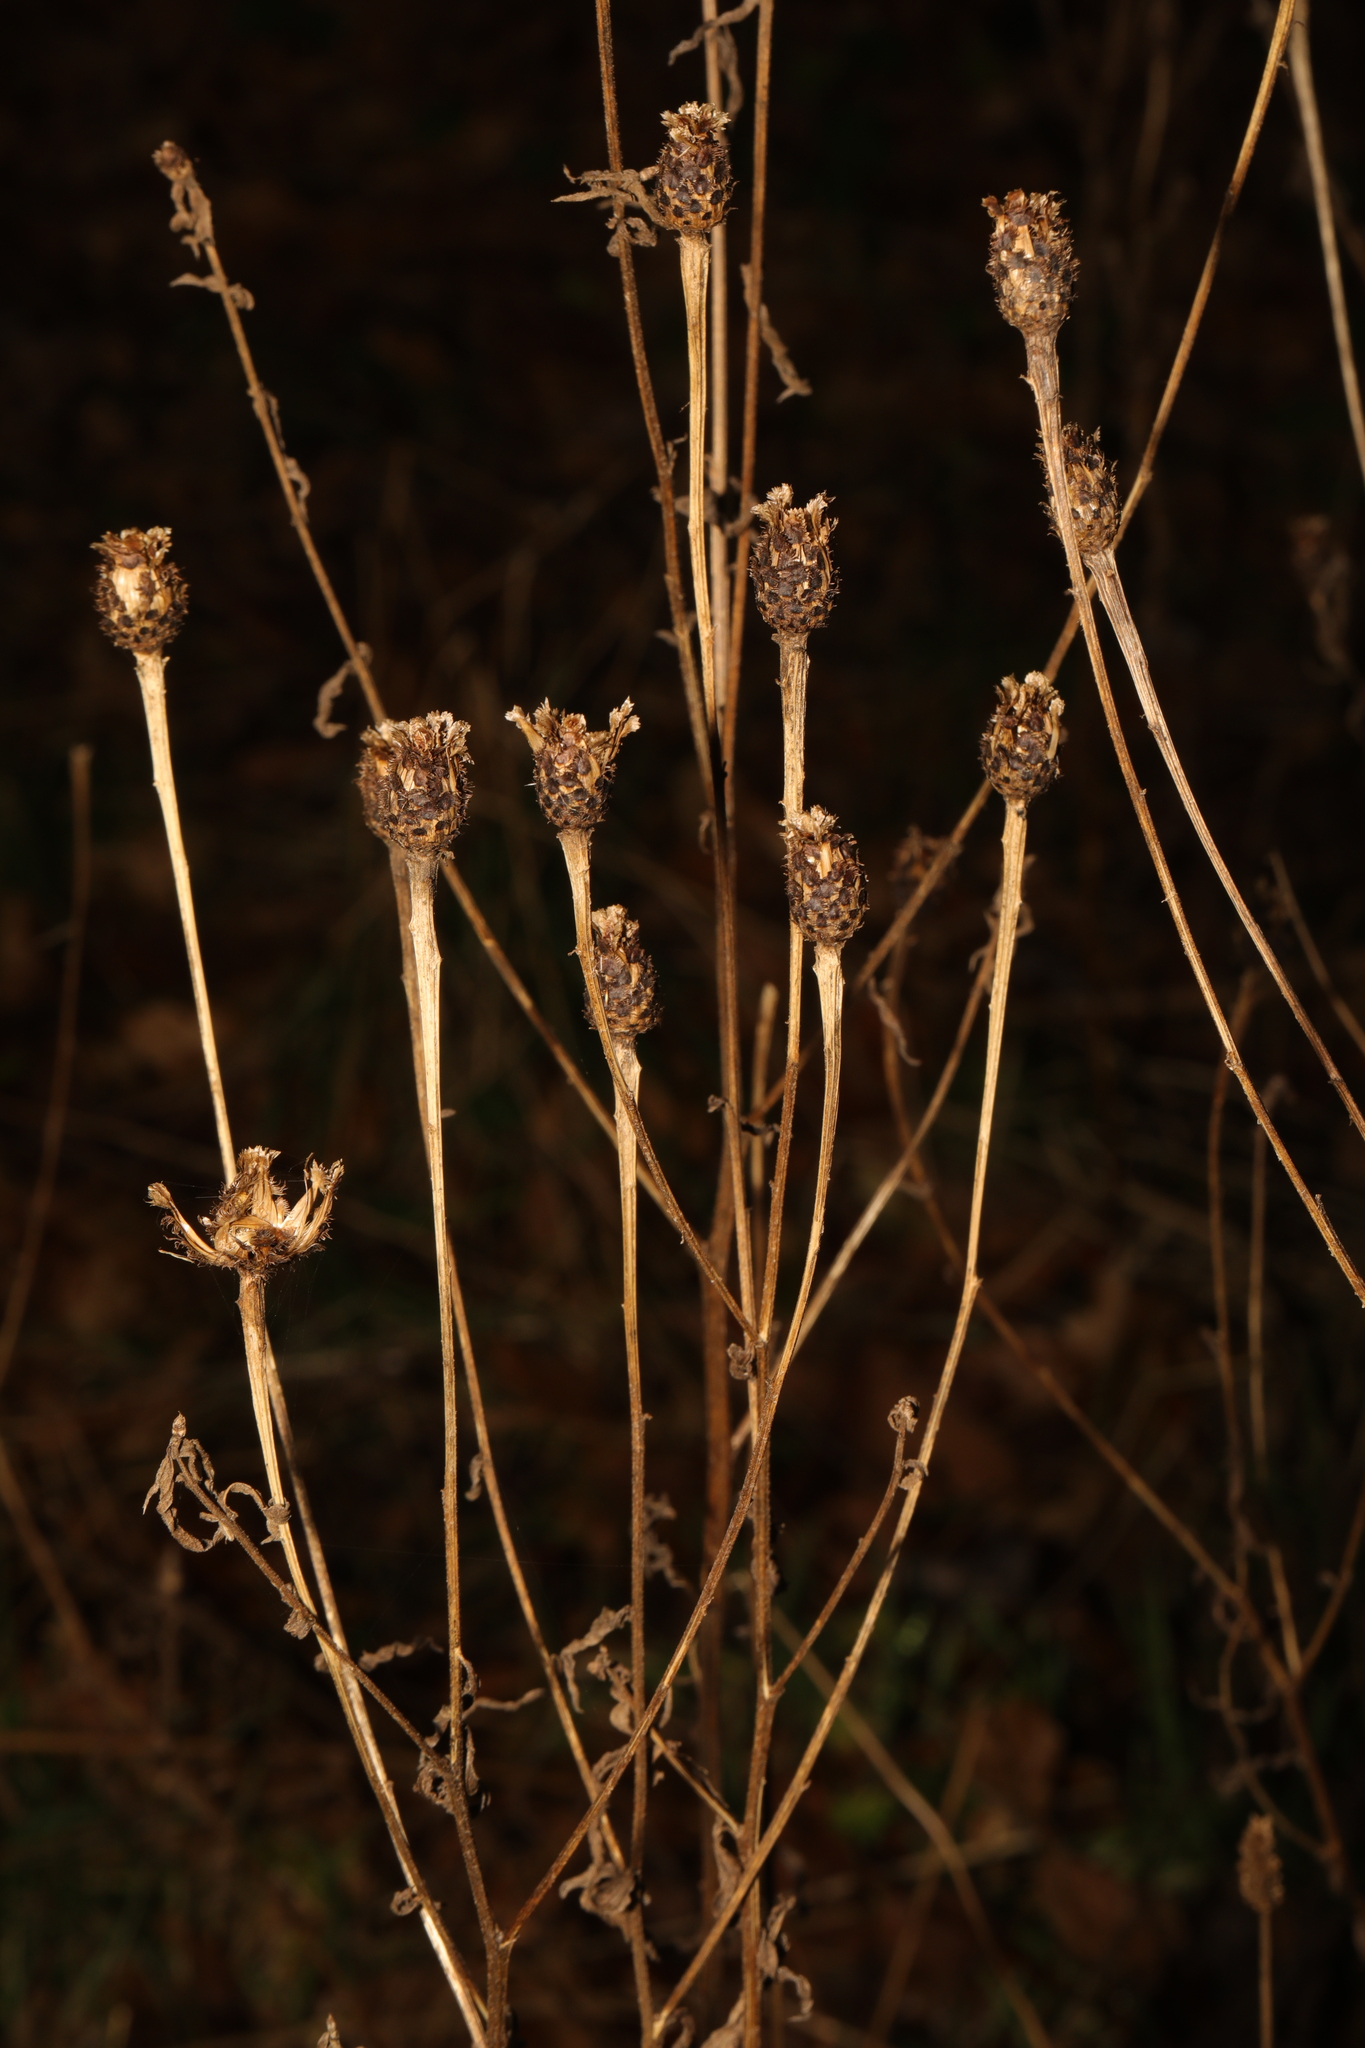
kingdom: Plantae
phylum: Tracheophyta
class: Magnoliopsida
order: Asterales
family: Asteraceae
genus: Centaurea
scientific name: Centaurea nigra
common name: Lesser knapweed
